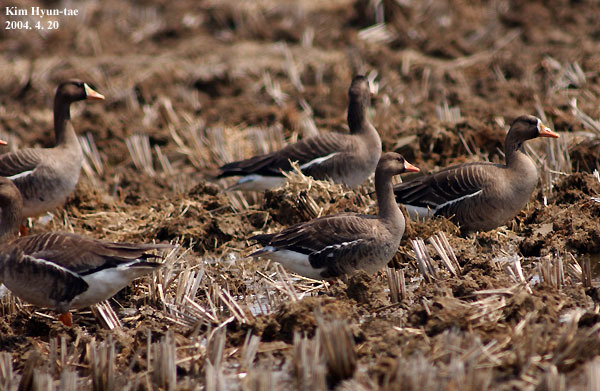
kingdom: Animalia
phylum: Chordata
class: Aves
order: Anseriformes
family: Anatidae
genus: Anser
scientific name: Anser albifrons
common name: Greater white-fronted goose
